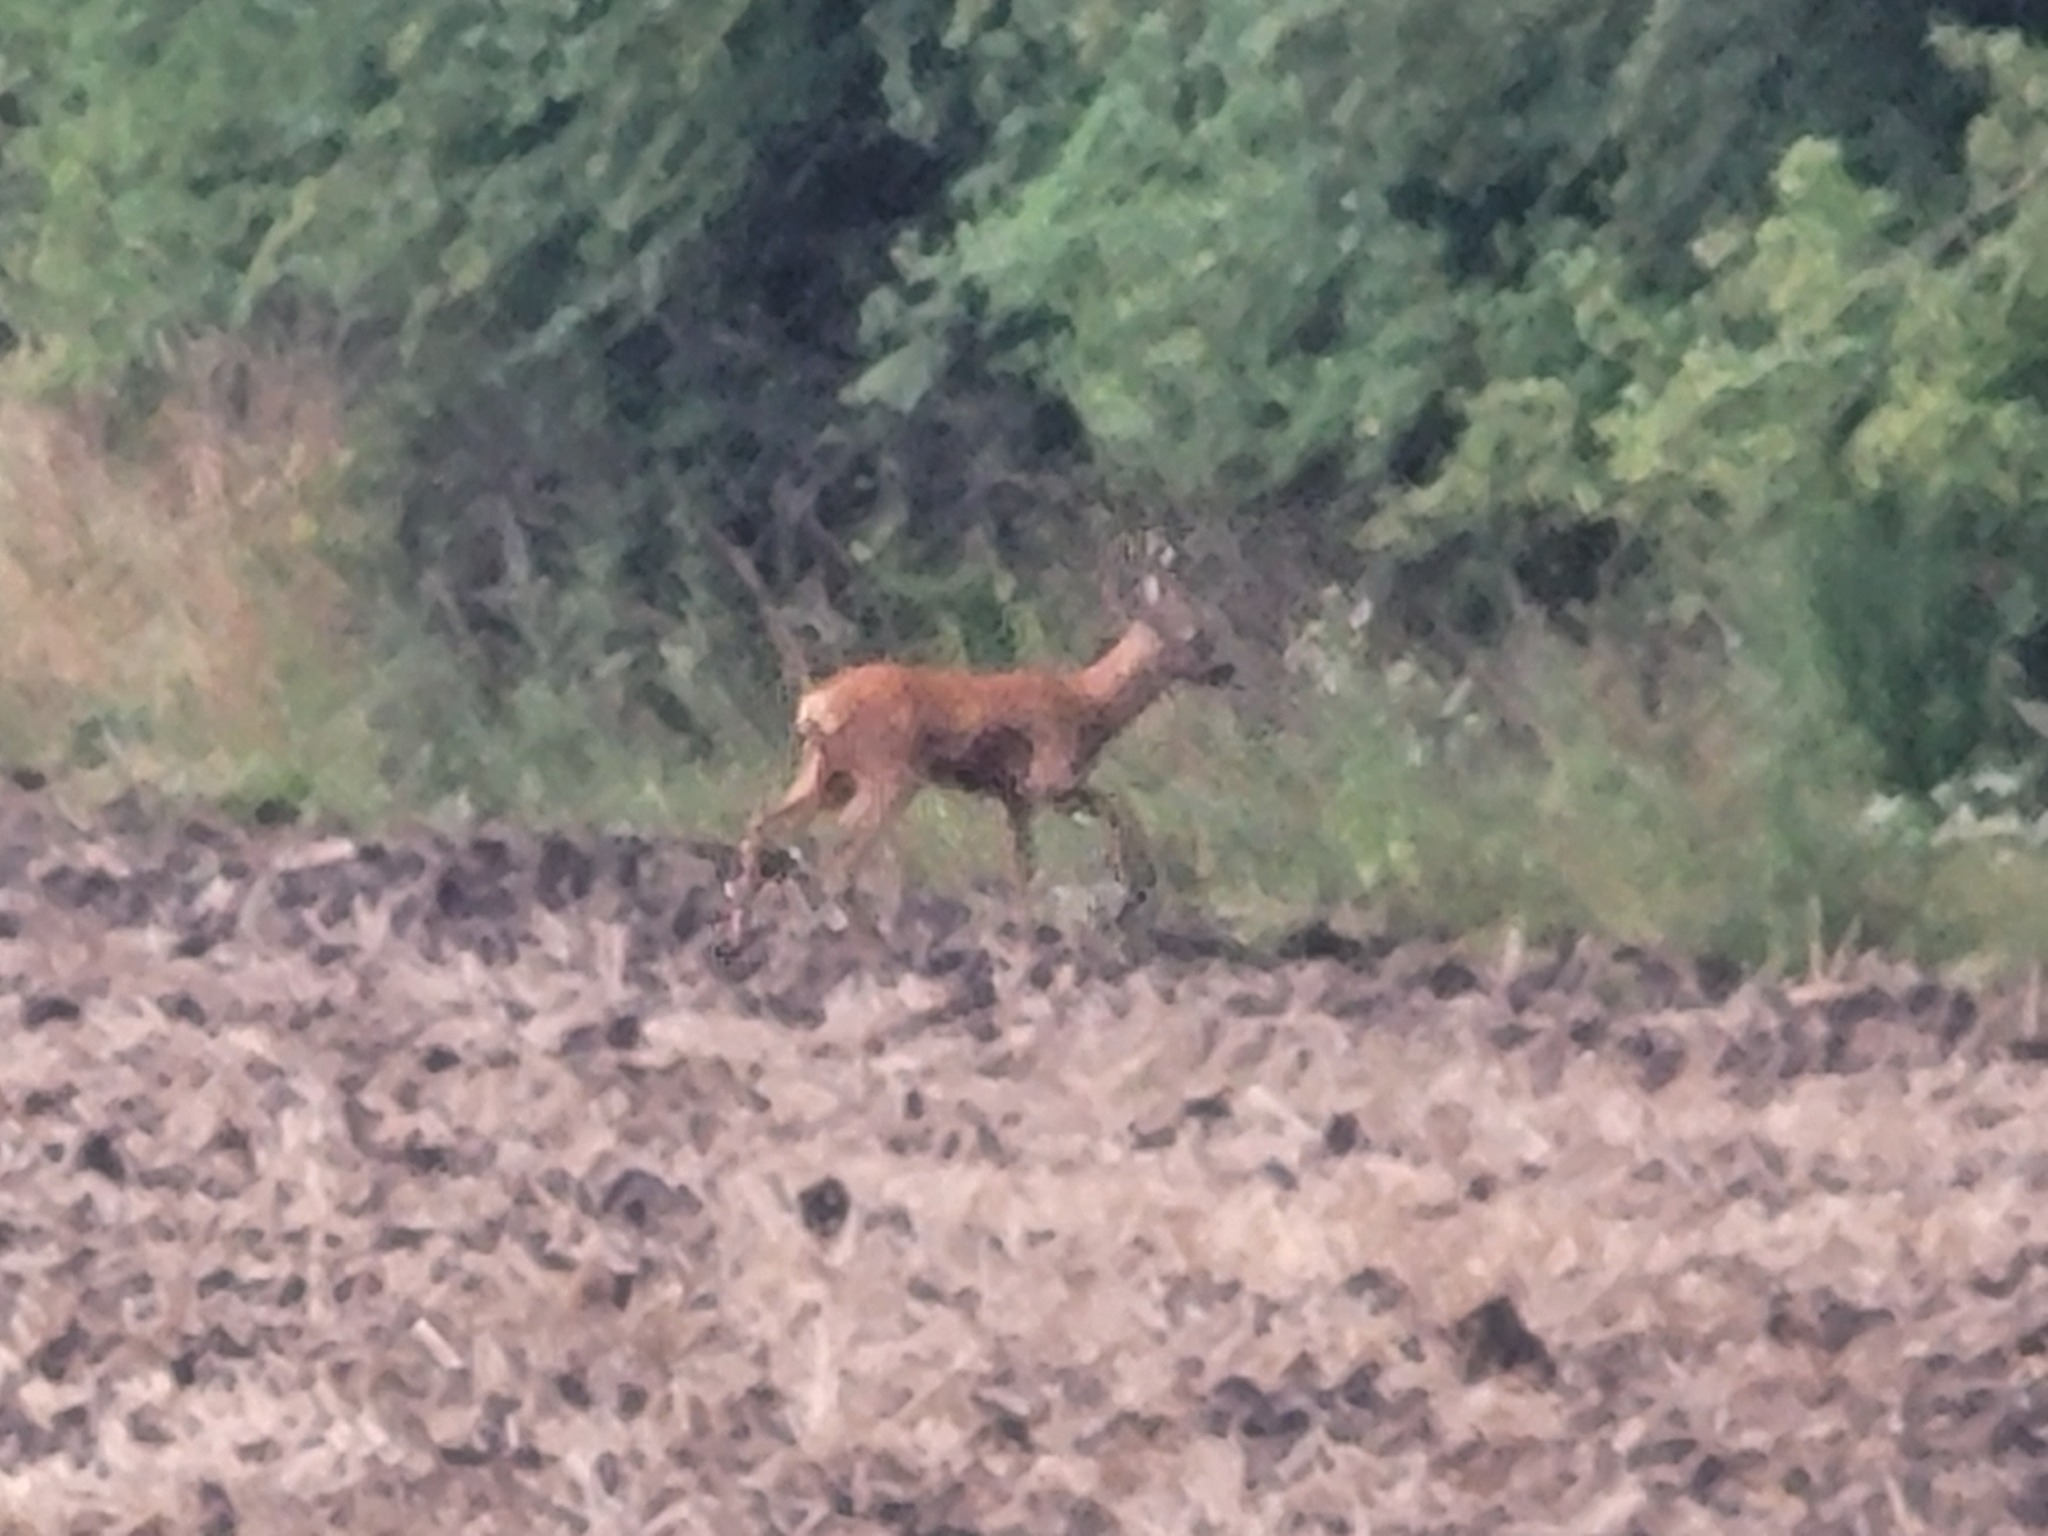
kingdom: Animalia
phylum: Chordata
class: Mammalia
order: Artiodactyla
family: Cervidae
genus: Capreolus
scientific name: Capreolus capreolus
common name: Western roe deer
